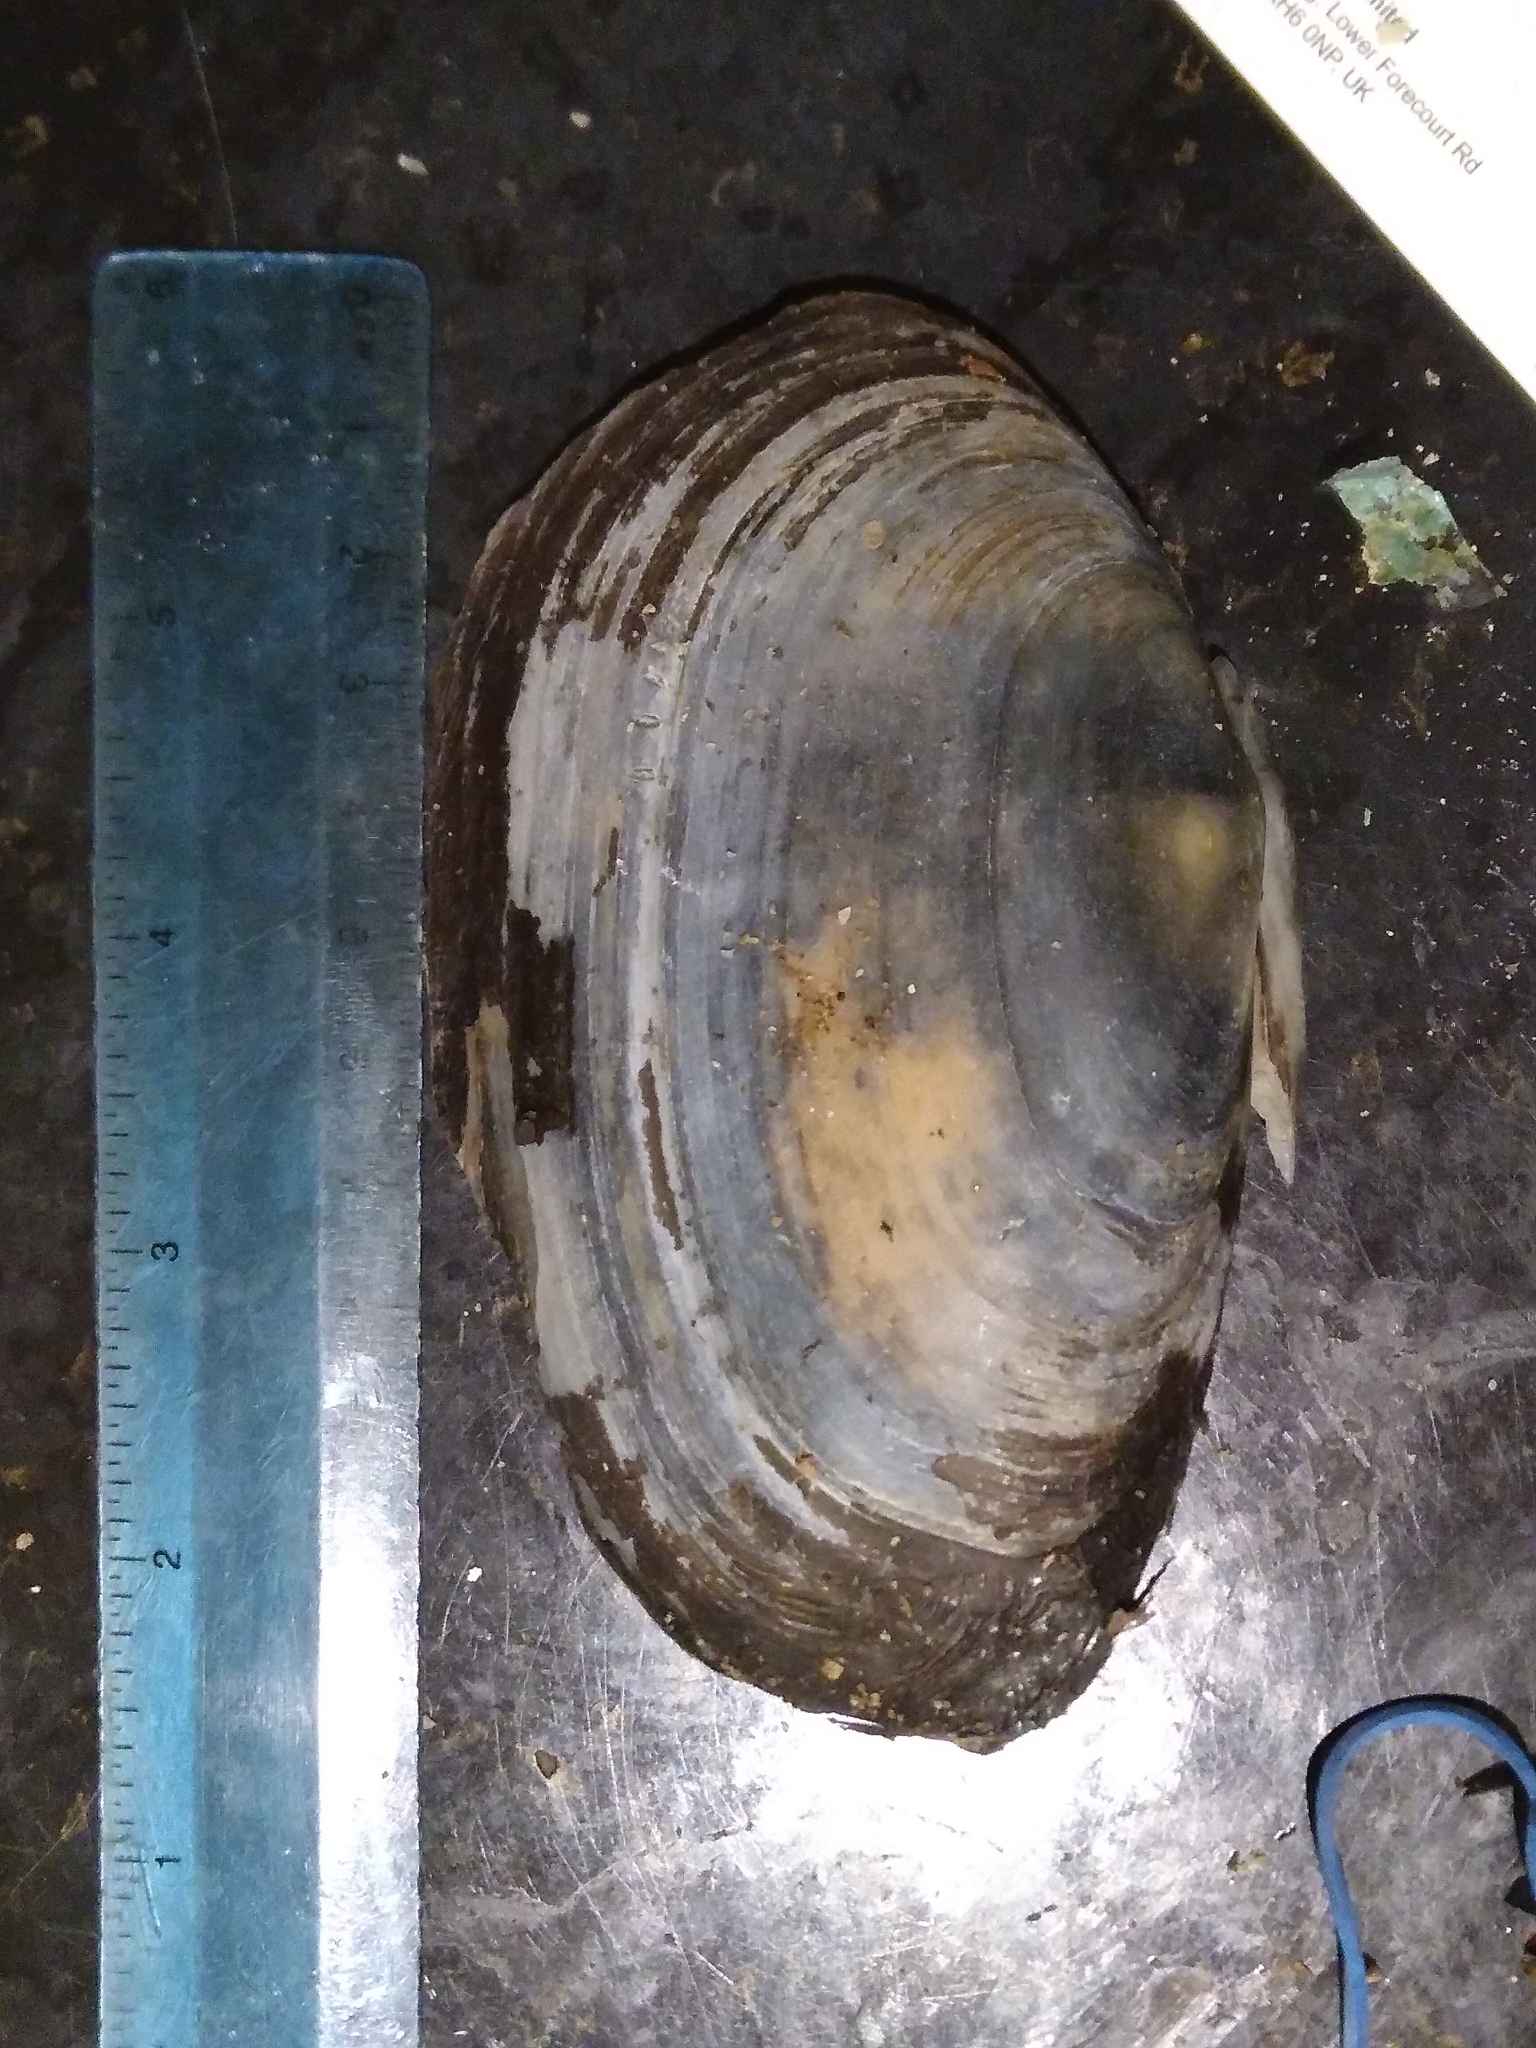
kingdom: Animalia
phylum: Mollusca
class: Bivalvia
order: Venerida
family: Mactridae
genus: Lutraria
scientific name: Lutraria lutraria
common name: Common otter shell
